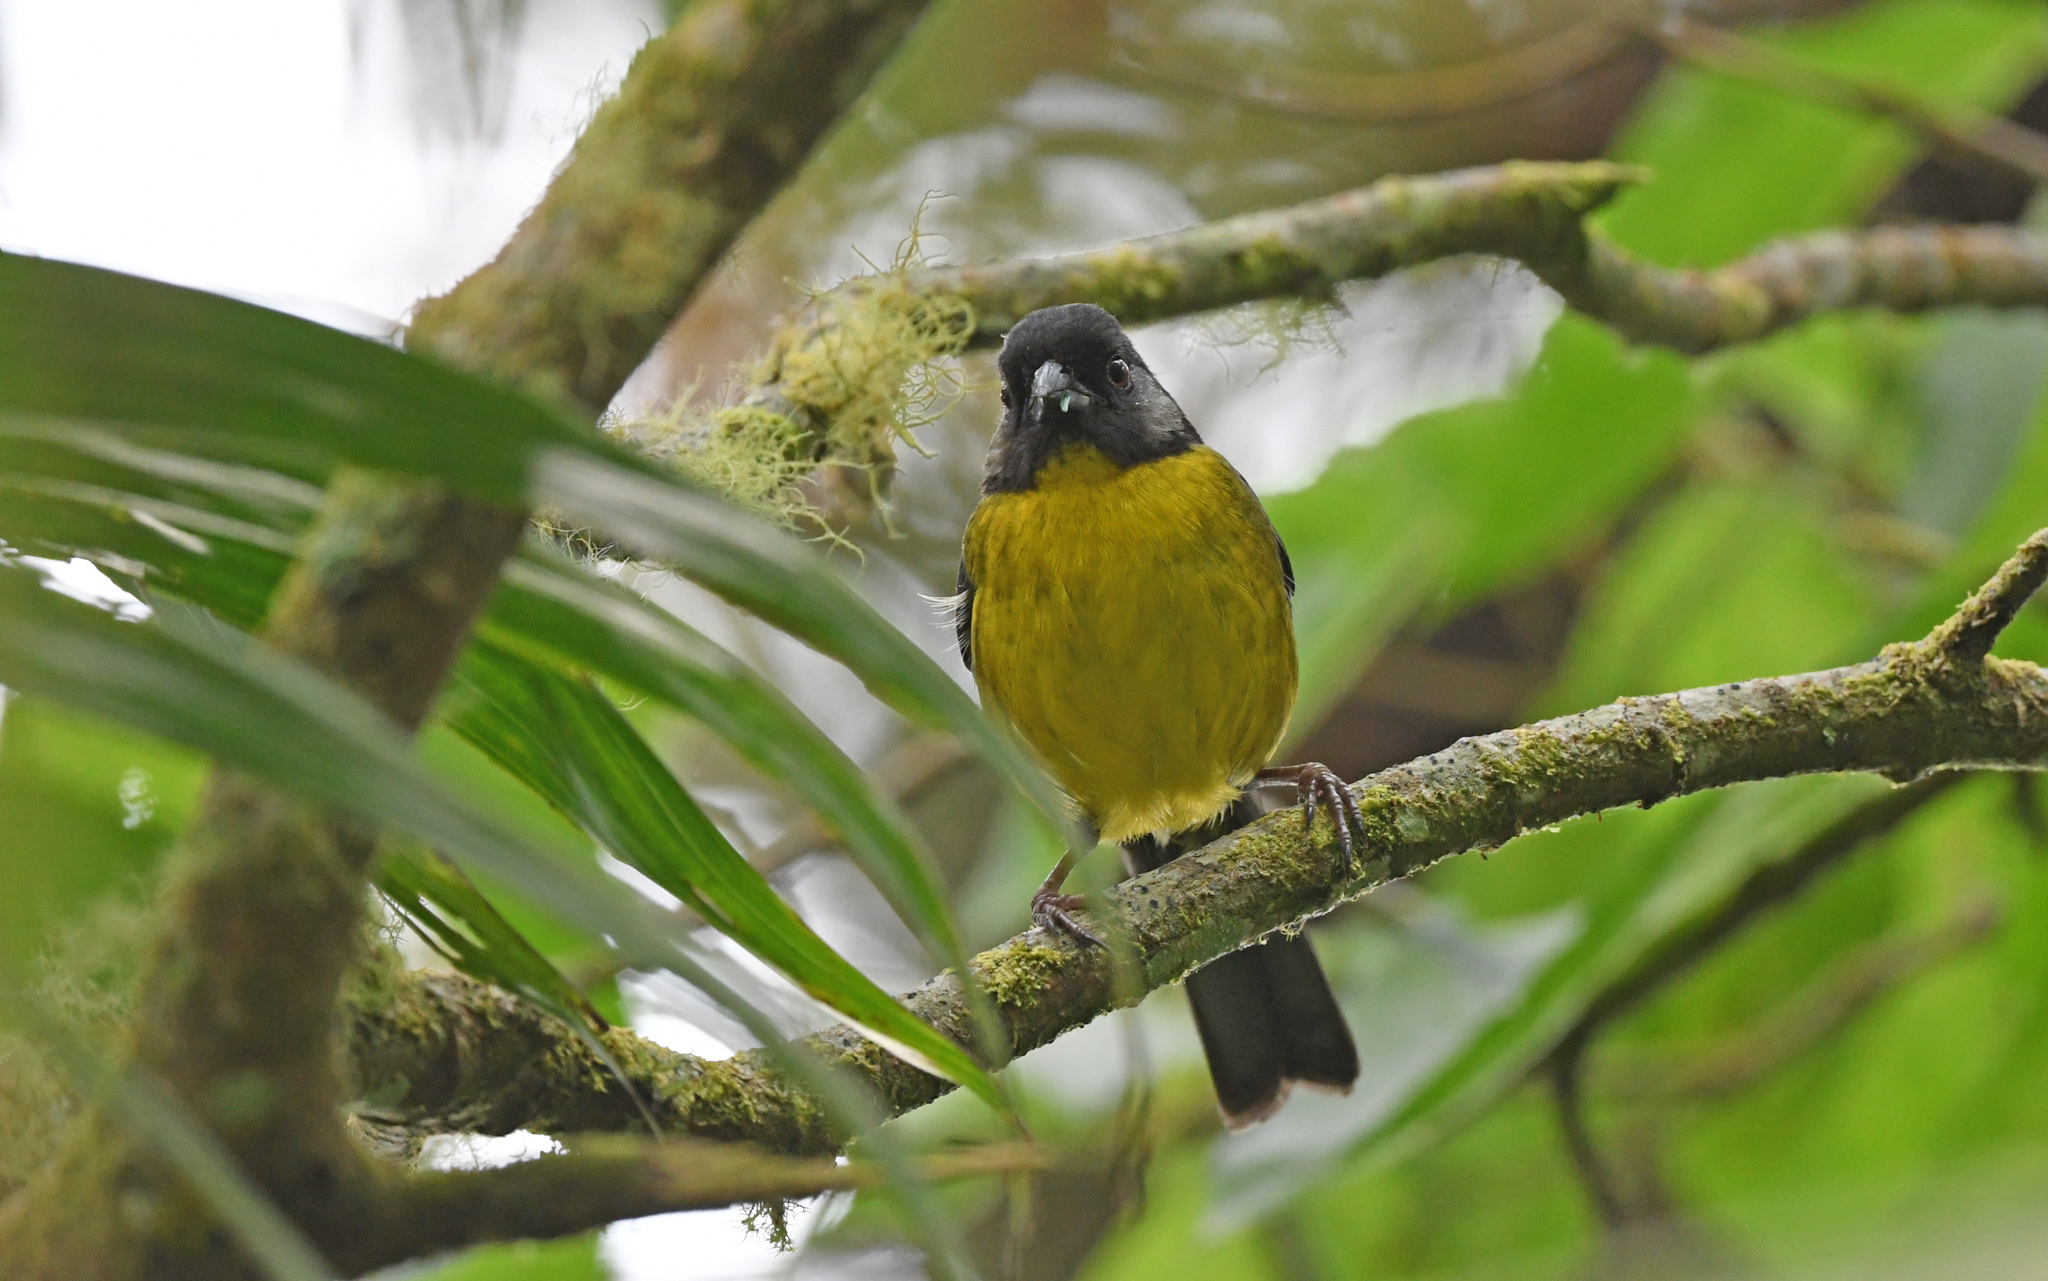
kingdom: Animalia
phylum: Chordata
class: Aves
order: Passeriformes
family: Passerellidae
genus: Atlapetes
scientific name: Atlapetes melanocephalus
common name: Santa marta brush-finch
